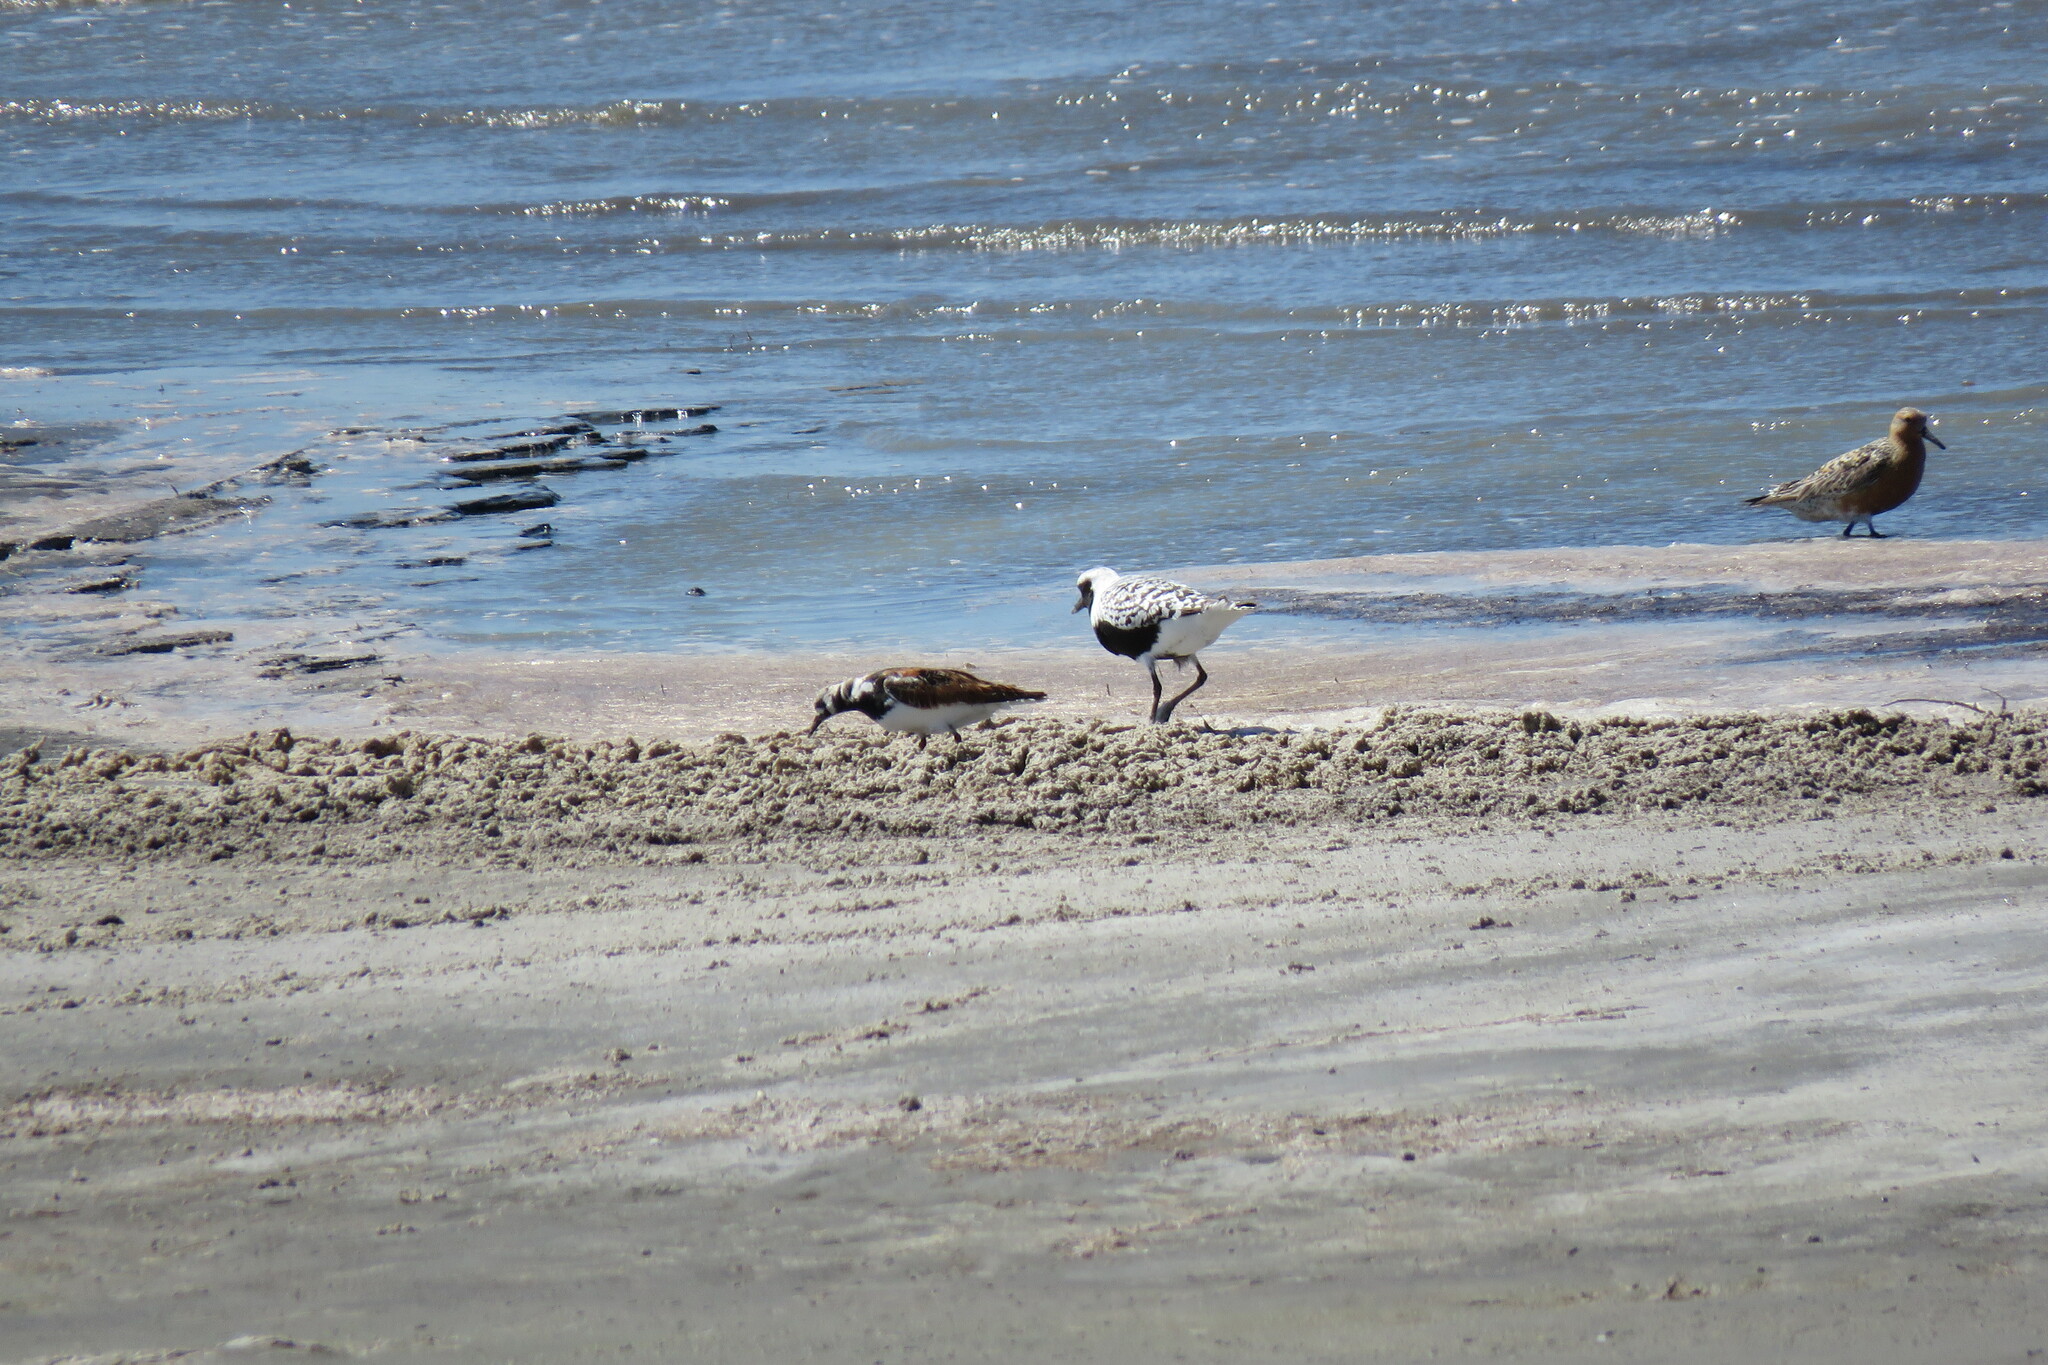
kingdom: Animalia
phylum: Chordata
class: Aves
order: Charadriiformes
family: Charadriidae
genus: Pluvialis
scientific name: Pluvialis squatarola
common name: Grey plover
